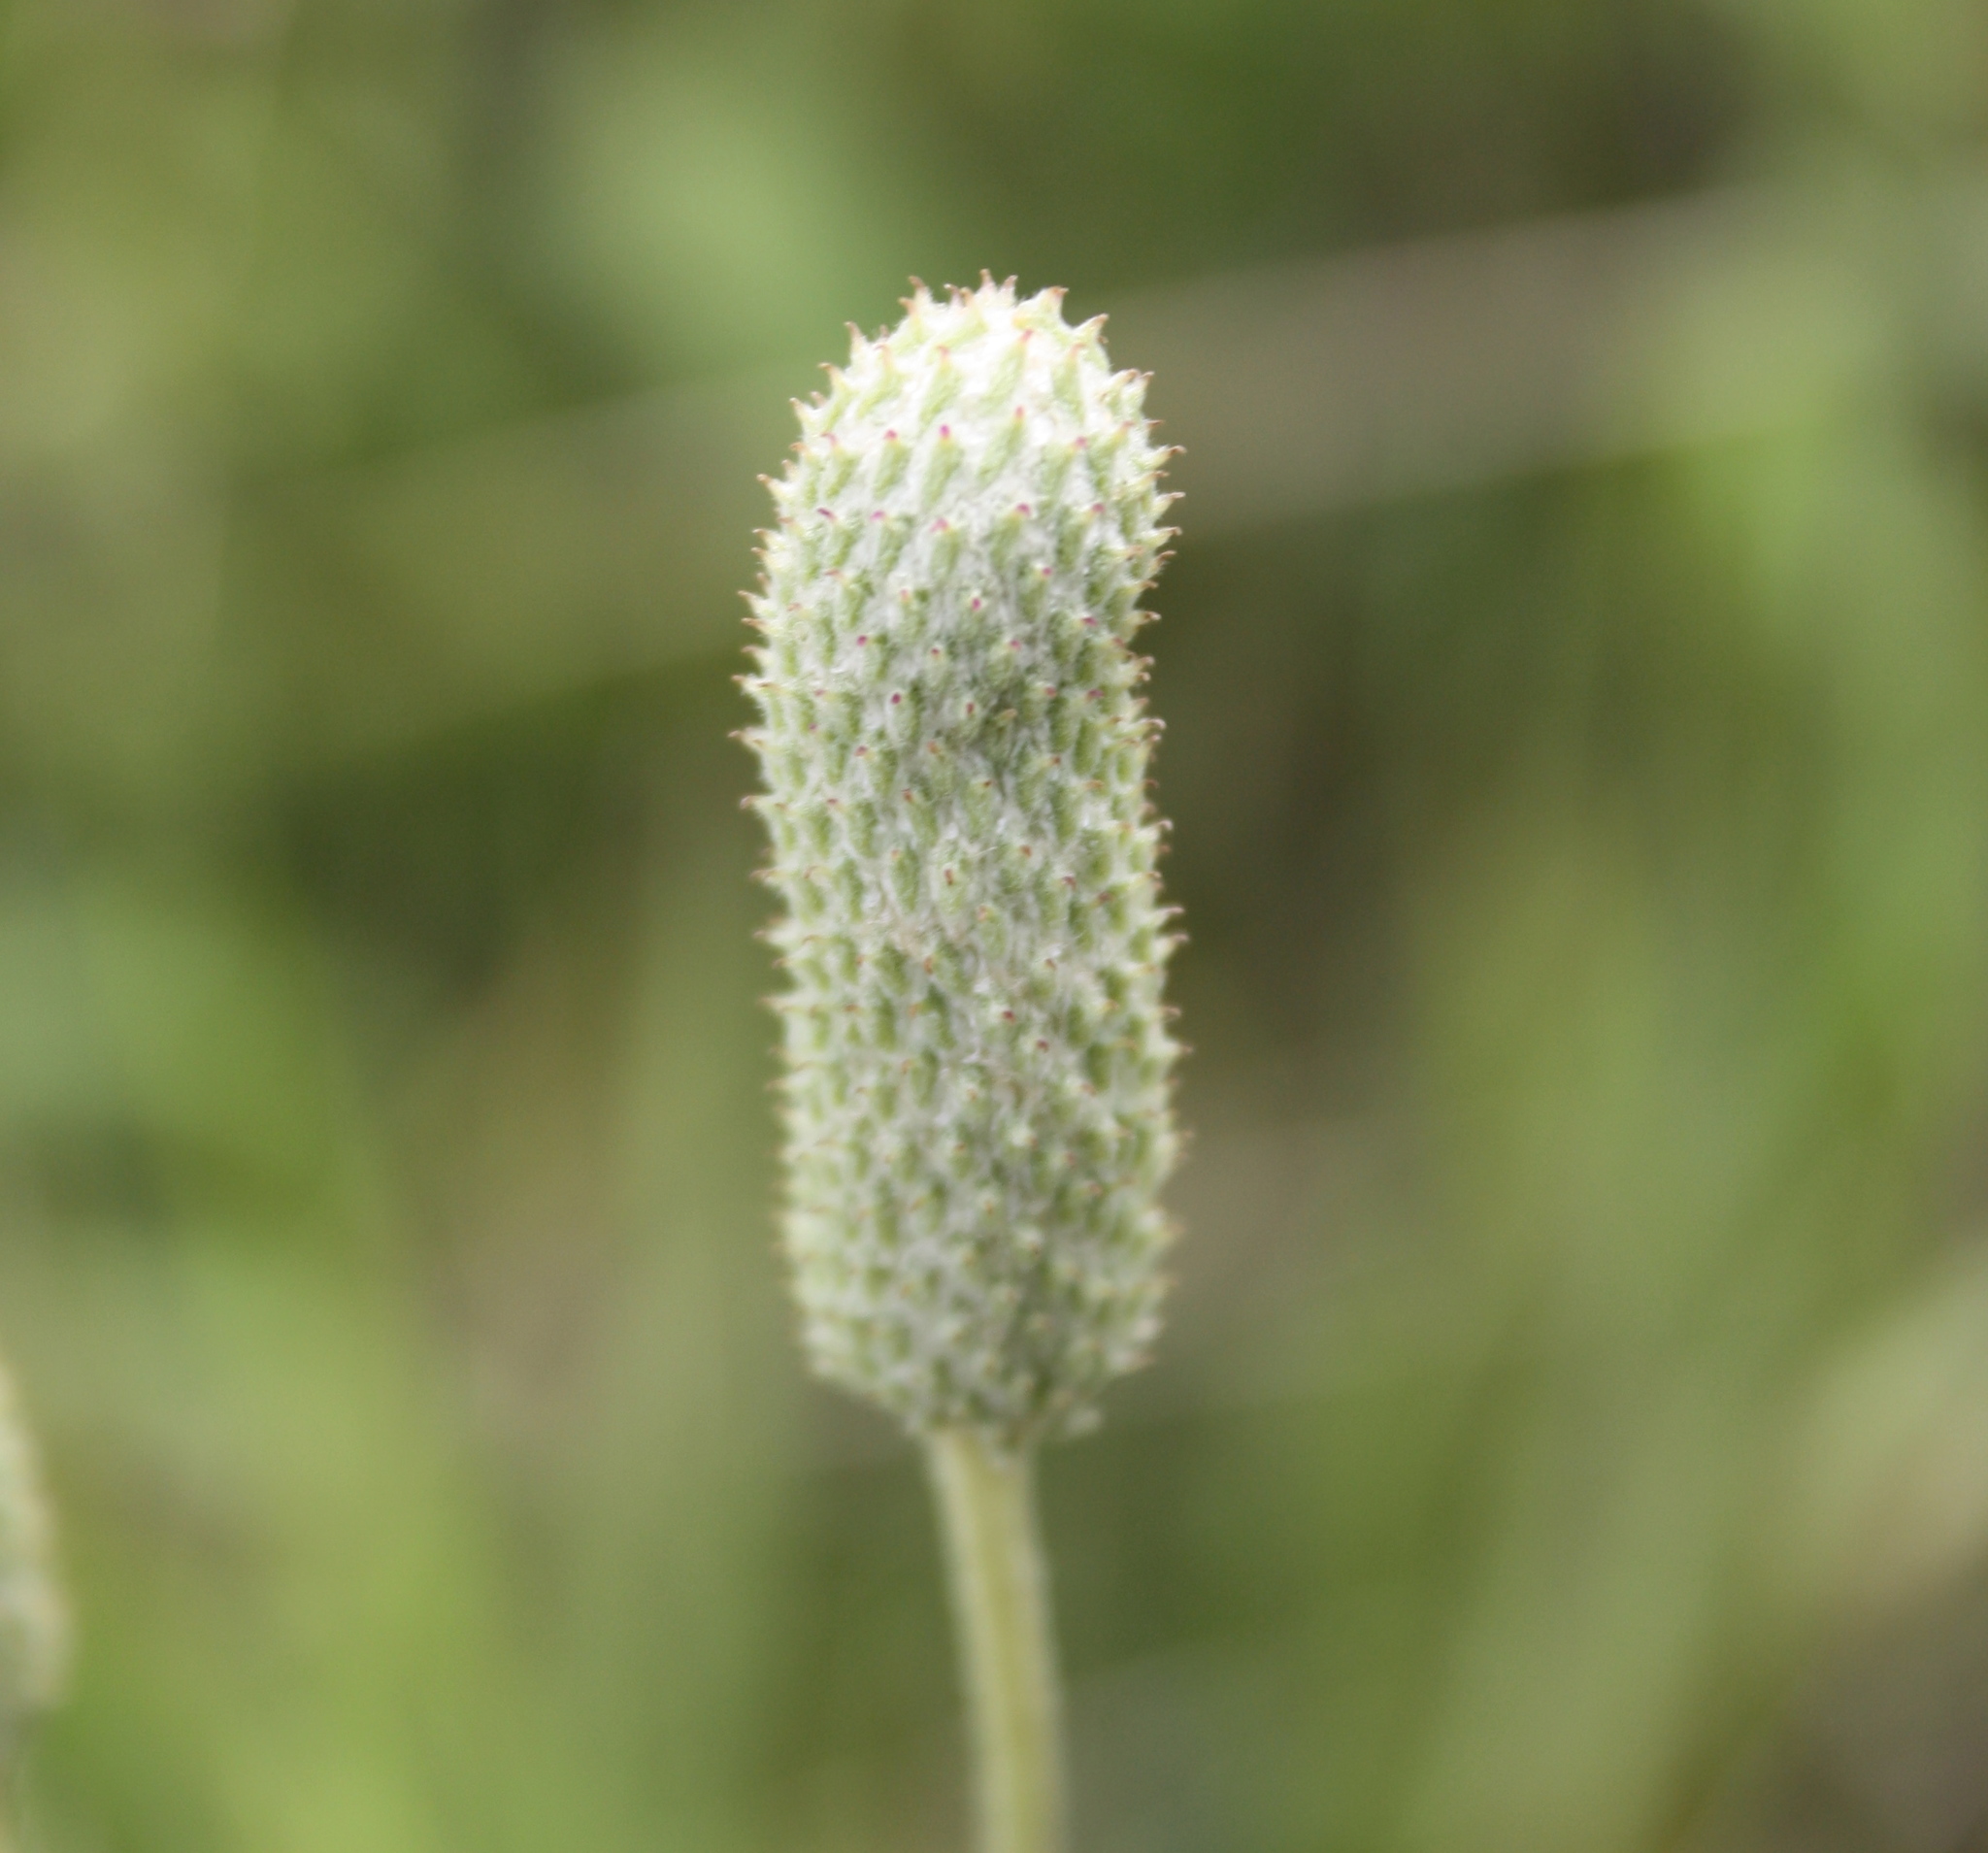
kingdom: Plantae
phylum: Tracheophyta
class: Magnoliopsida
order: Ranunculales
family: Ranunculaceae
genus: Anemone
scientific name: Anemone cylindrica
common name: Candle anemone
